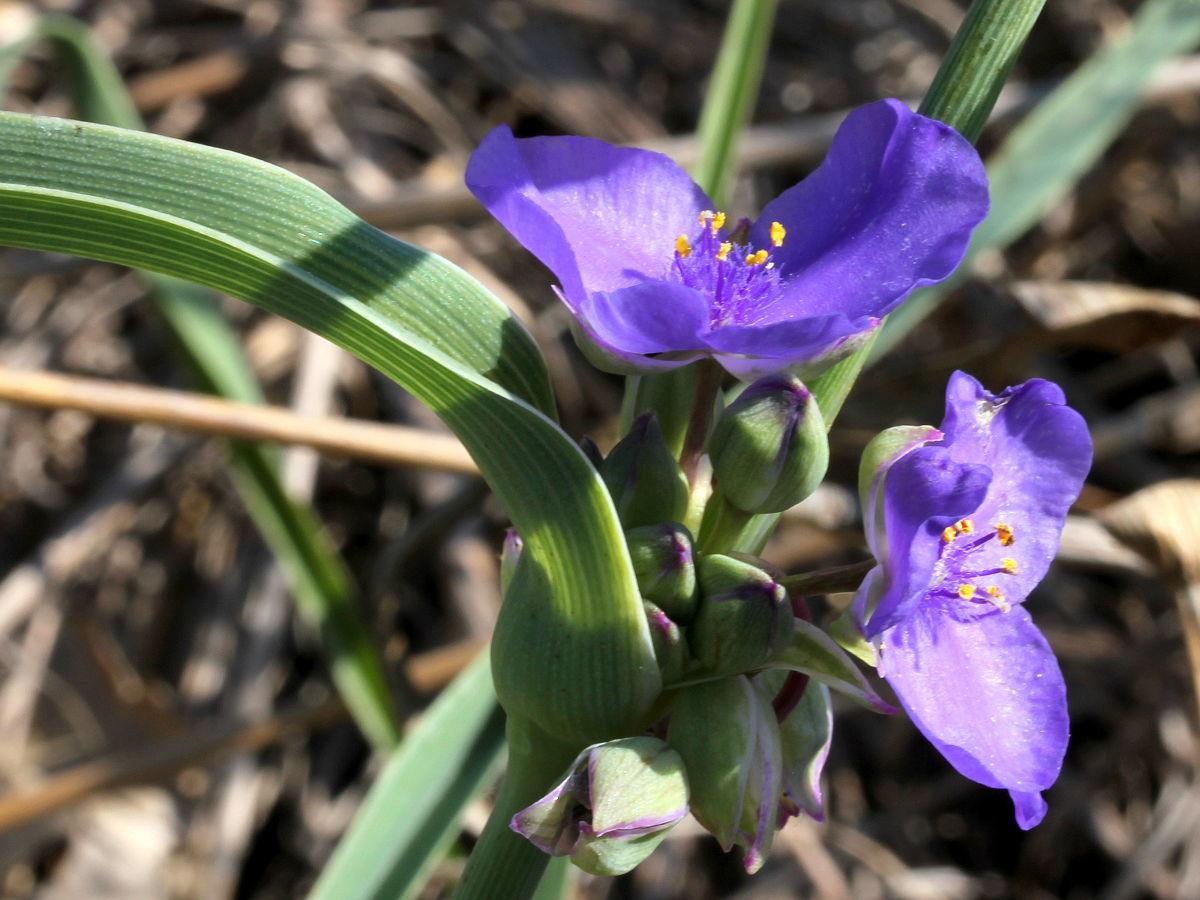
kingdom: Plantae
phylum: Tracheophyta
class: Liliopsida
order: Commelinales
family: Commelinaceae
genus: Tradescantia
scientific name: Tradescantia ohiensis
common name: Ohio spiderwort
